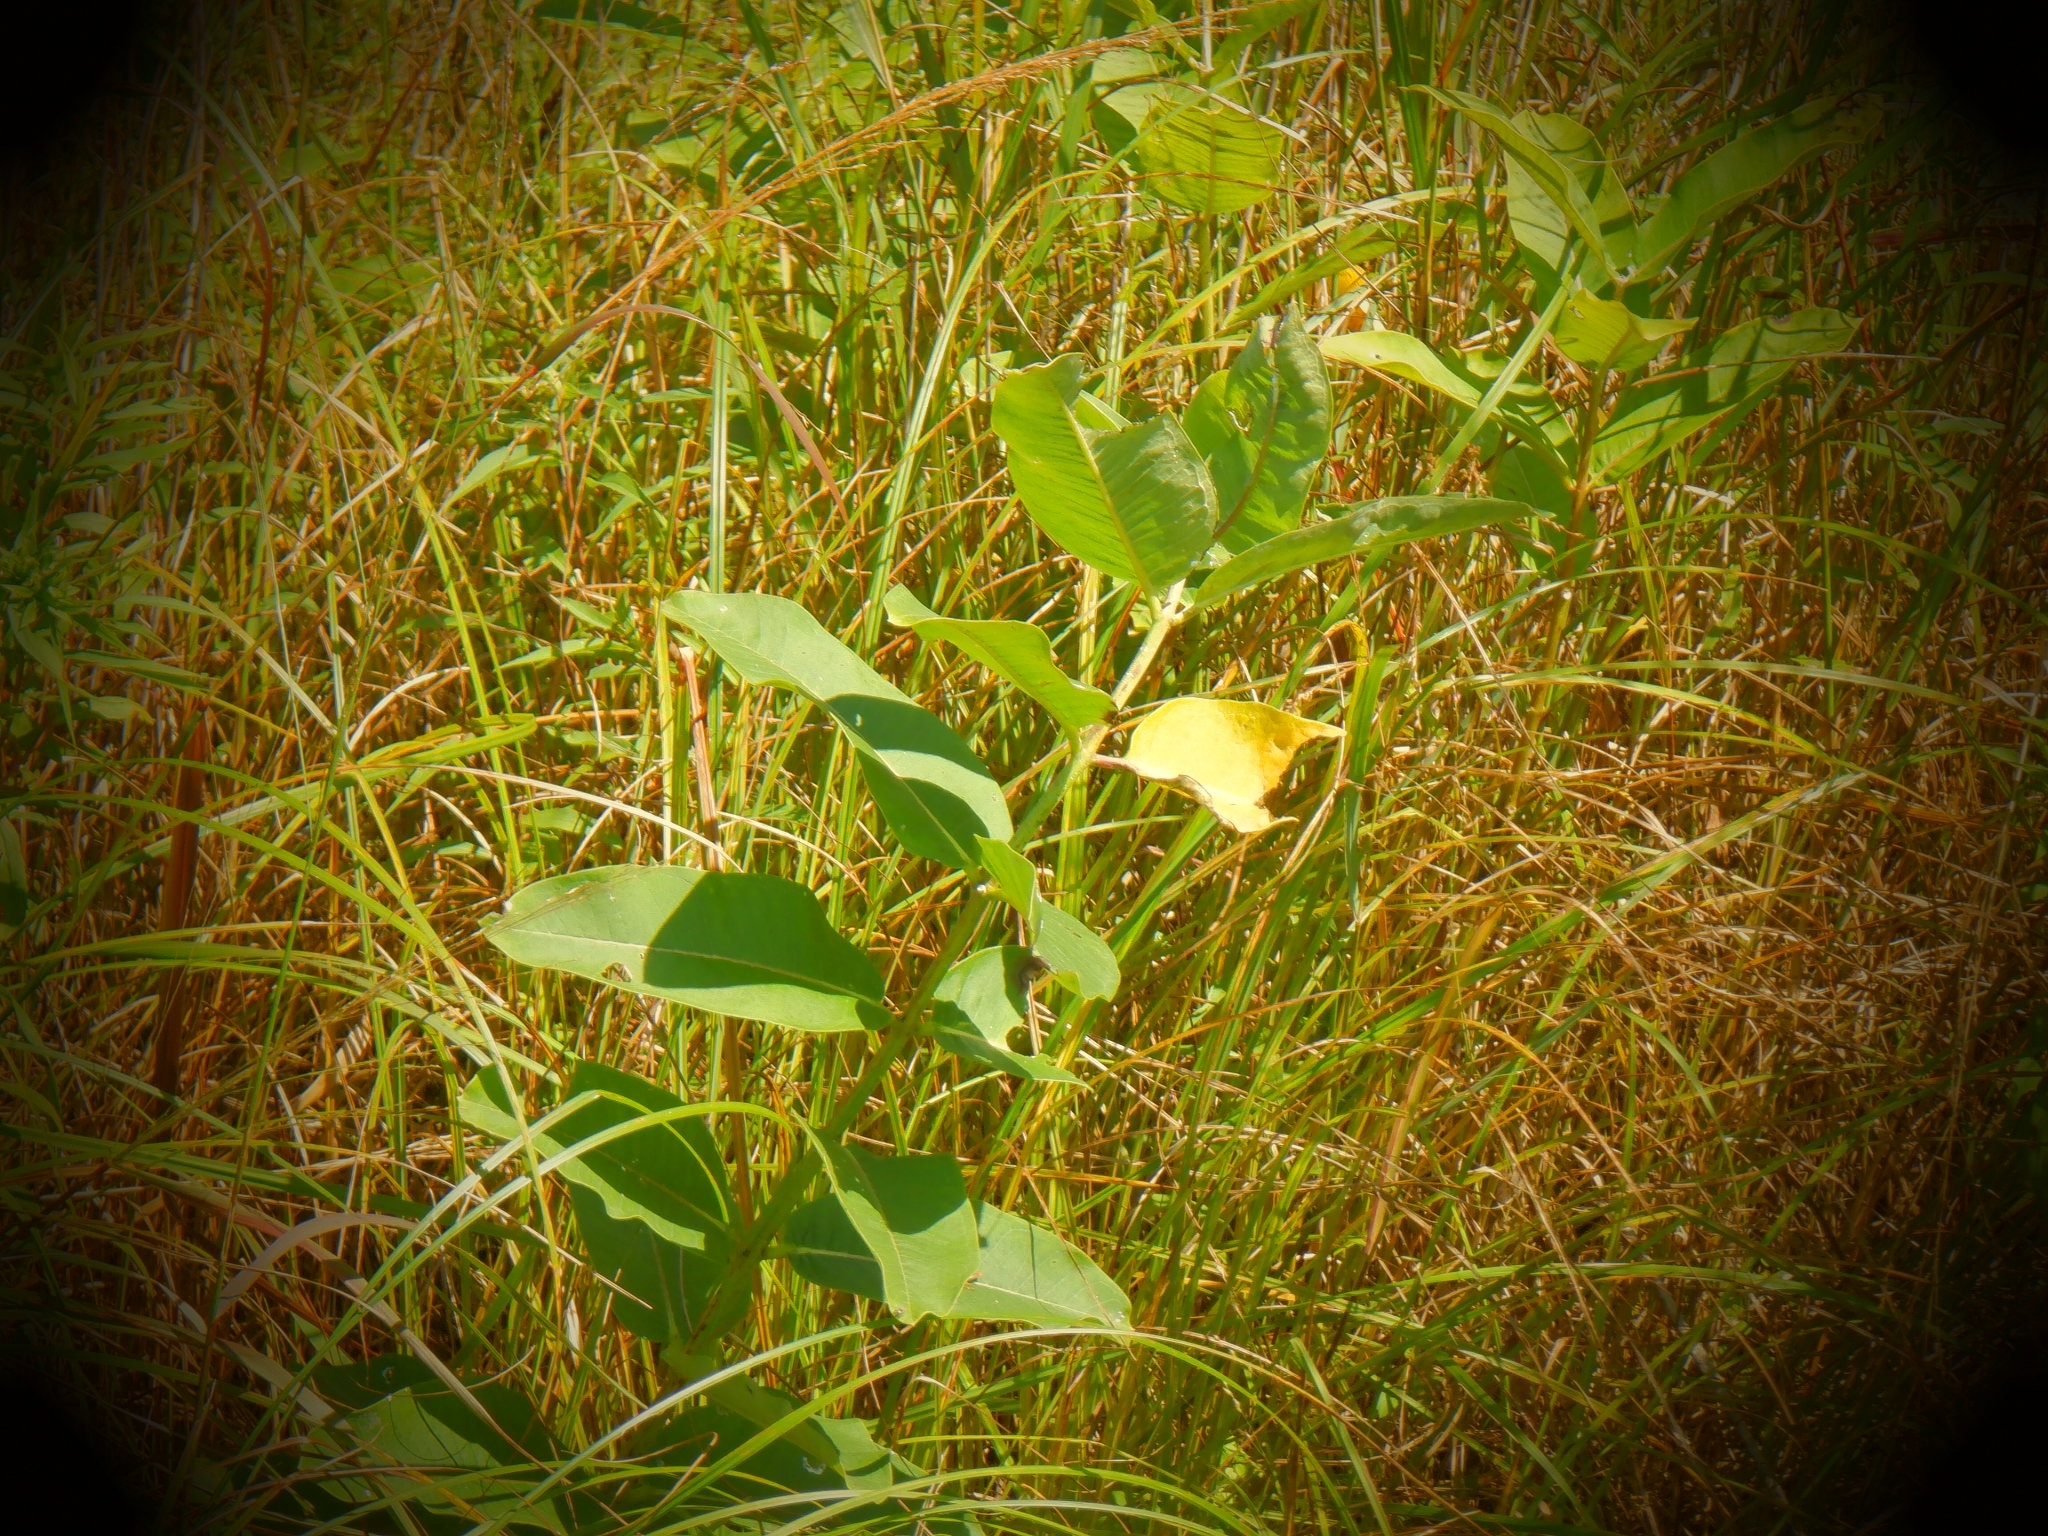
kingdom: Plantae
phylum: Tracheophyta
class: Magnoliopsida
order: Gentianales
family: Apocynaceae
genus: Asclepias
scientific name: Asclepias syriaca
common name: Common milkweed
